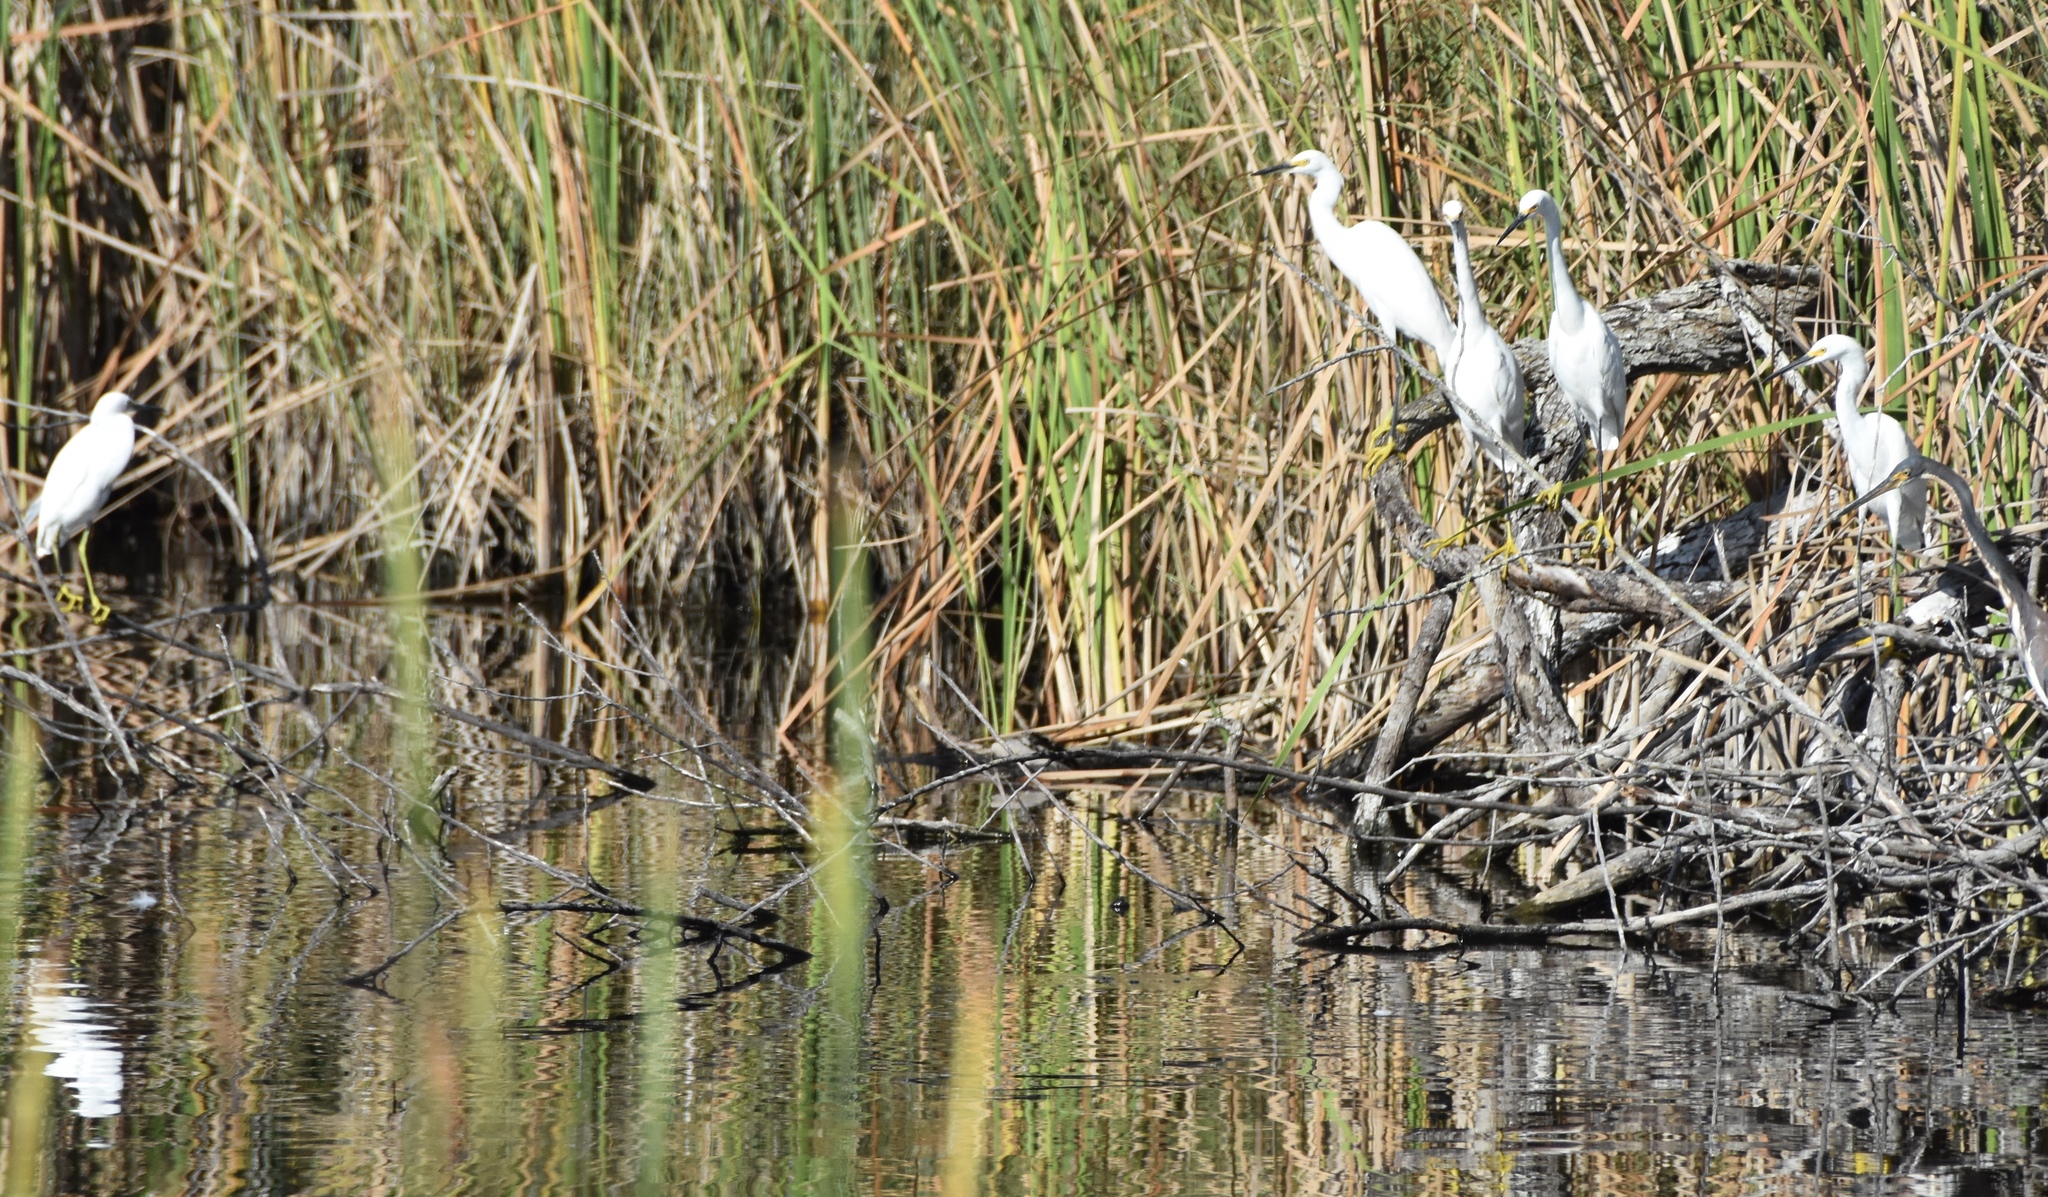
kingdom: Animalia
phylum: Chordata
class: Aves
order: Pelecaniformes
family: Ardeidae
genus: Egretta
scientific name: Egretta thula
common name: Snowy egret
